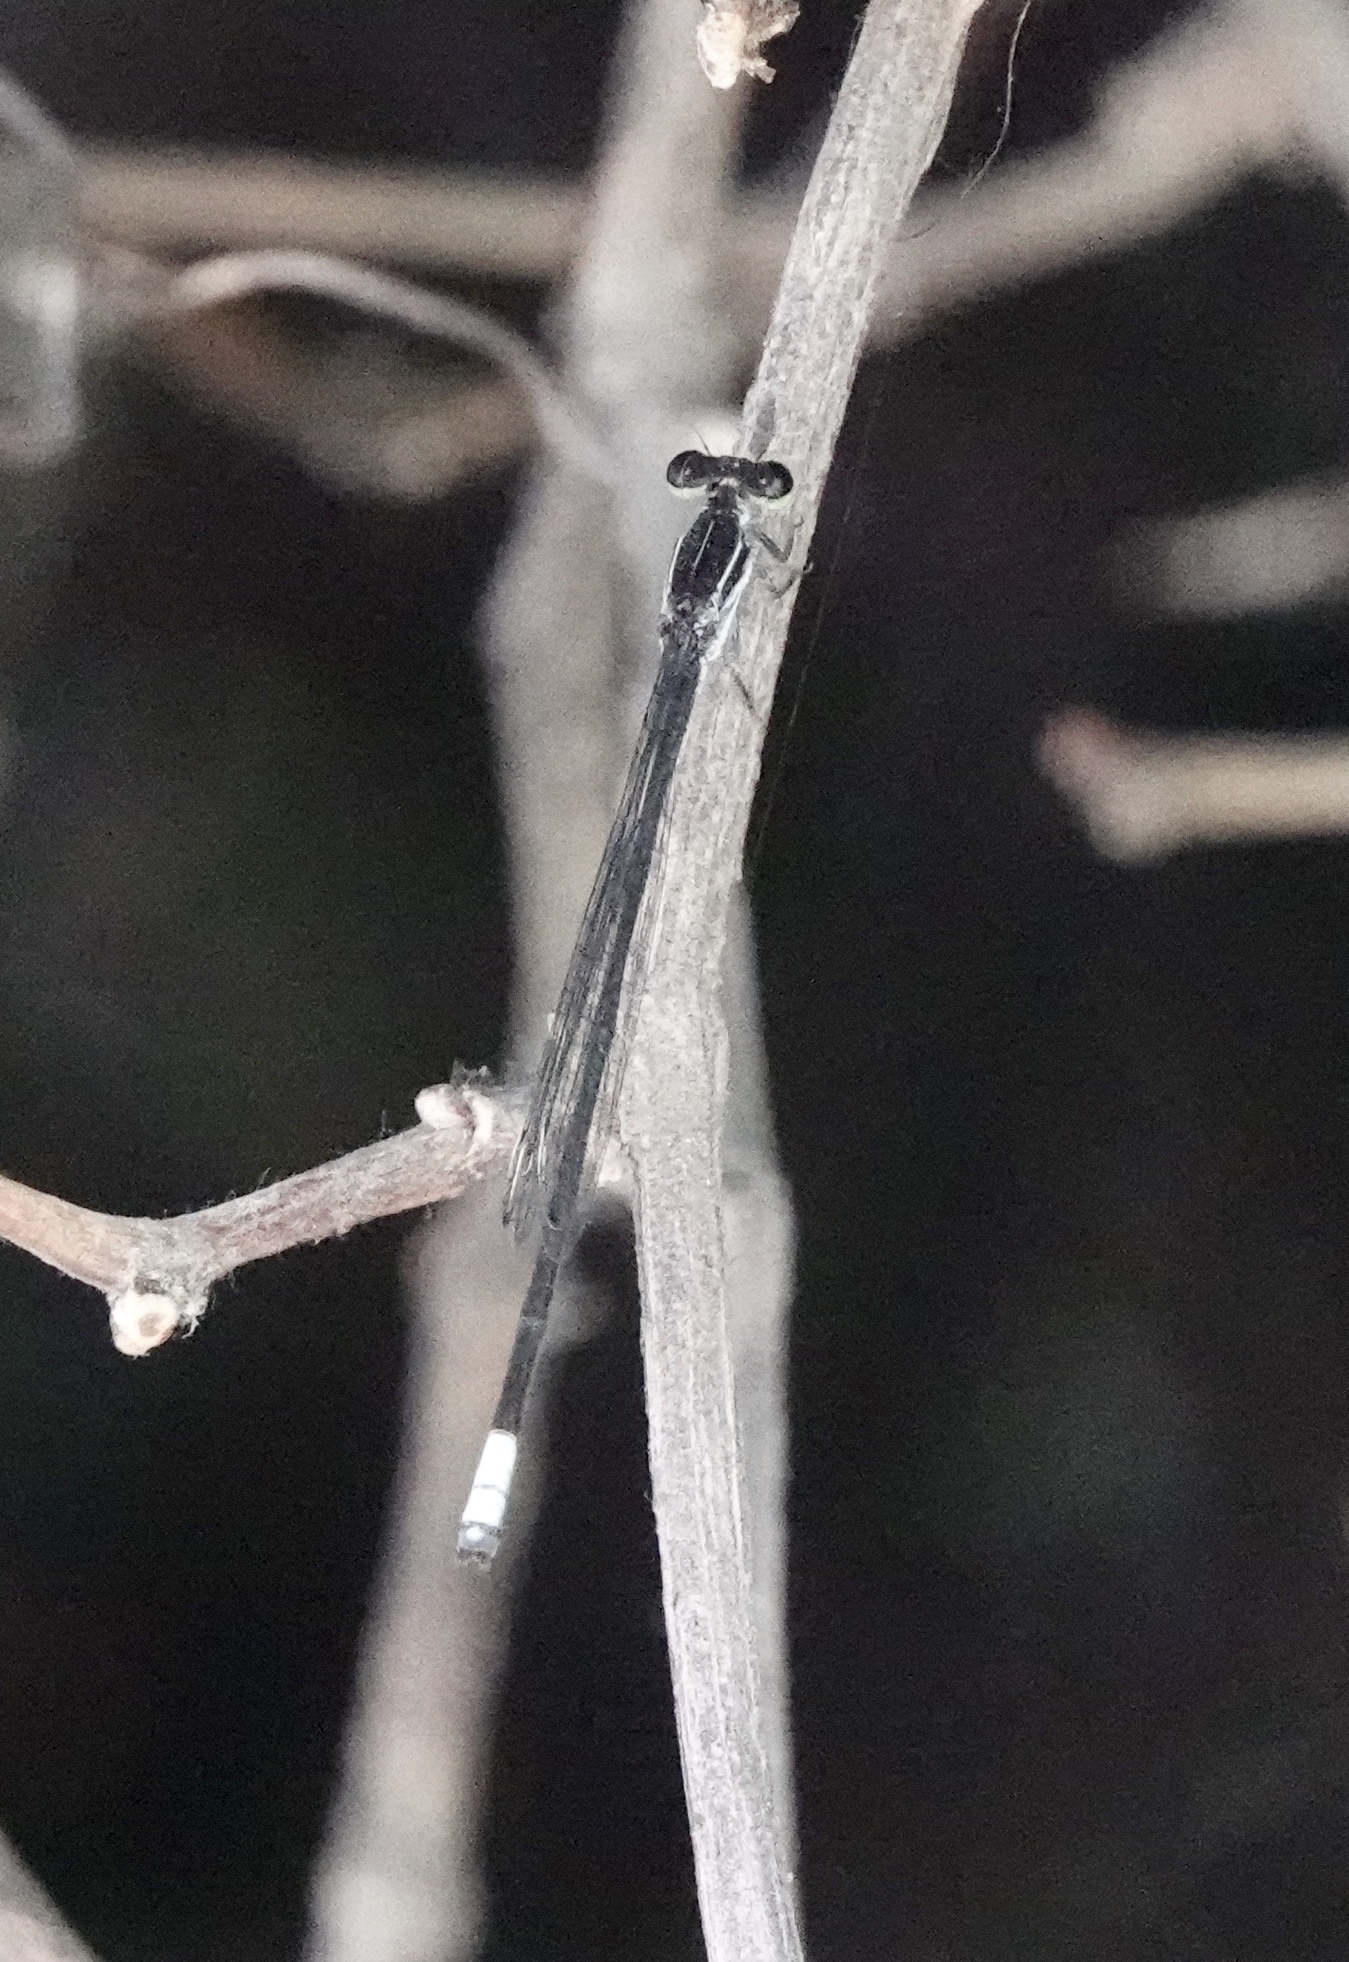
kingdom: Animalia
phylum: Arthropoda
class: Insecta
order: Odonata
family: Coenagrionidae
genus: Apanisagrion
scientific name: Apanisagrion lais
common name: Black-and-white damsel
